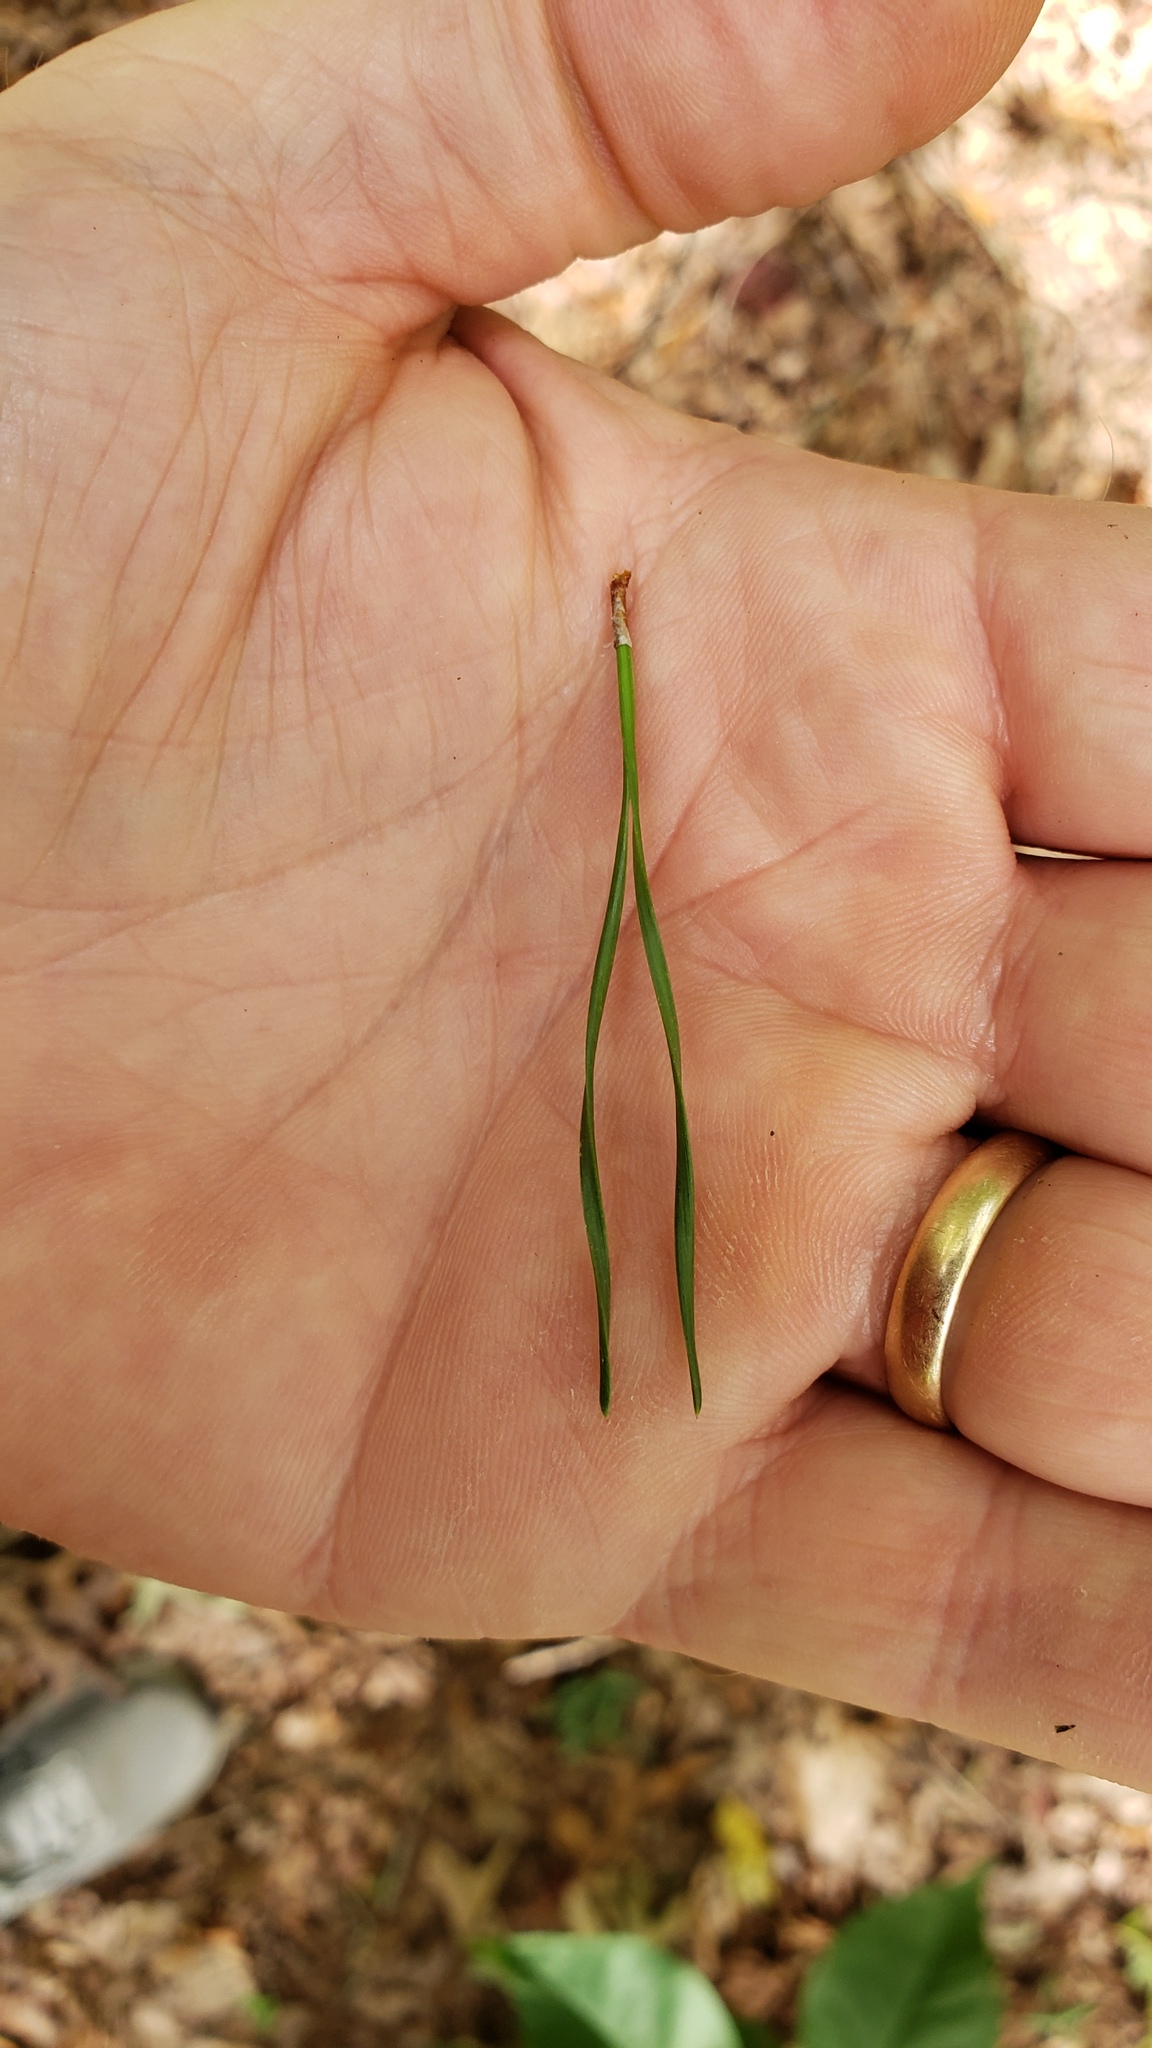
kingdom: Plantae
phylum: Tracheophyta
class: Pinopsida
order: Pinales
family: Pinaceae
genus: Pinus
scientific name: Pinus virginiana
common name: Scrub pine
